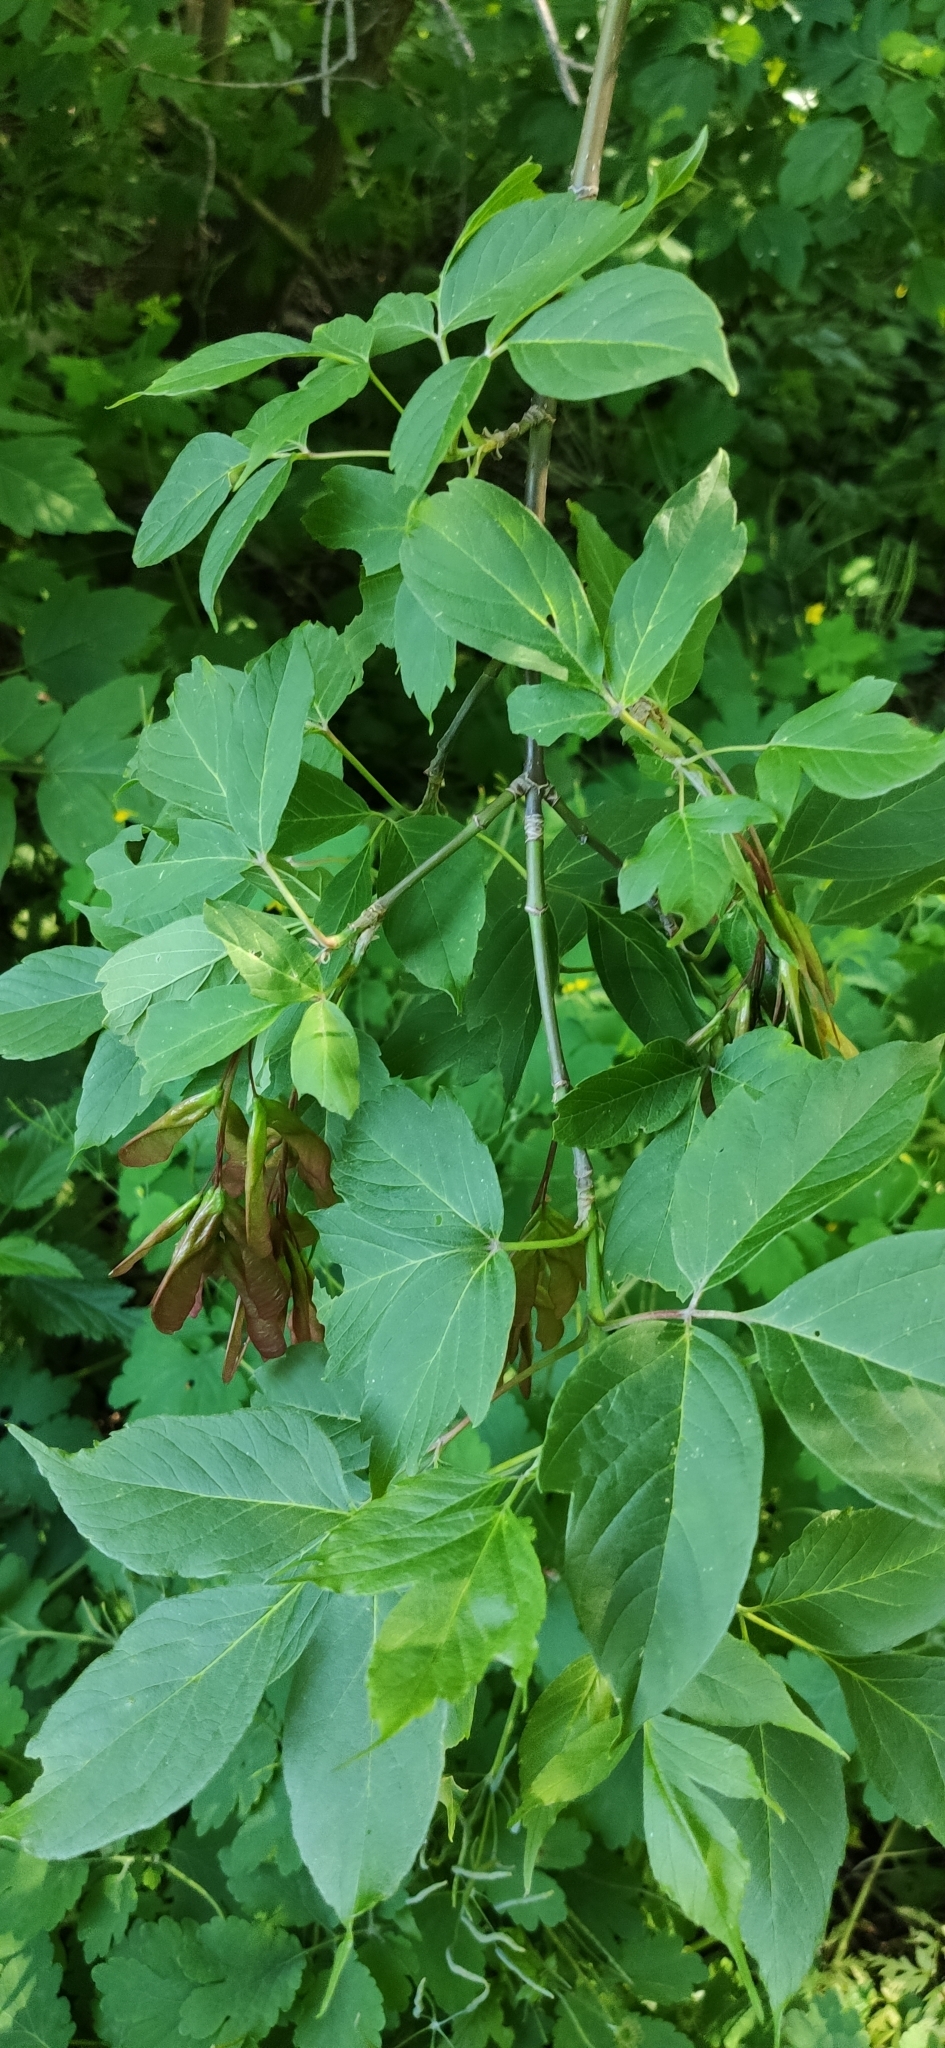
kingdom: Plantae
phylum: Tracheophyta
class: Magnoliopsida
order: Sapindales
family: Sapindaceae
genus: Acer
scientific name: Acer negundo
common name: Ashleaf maple
